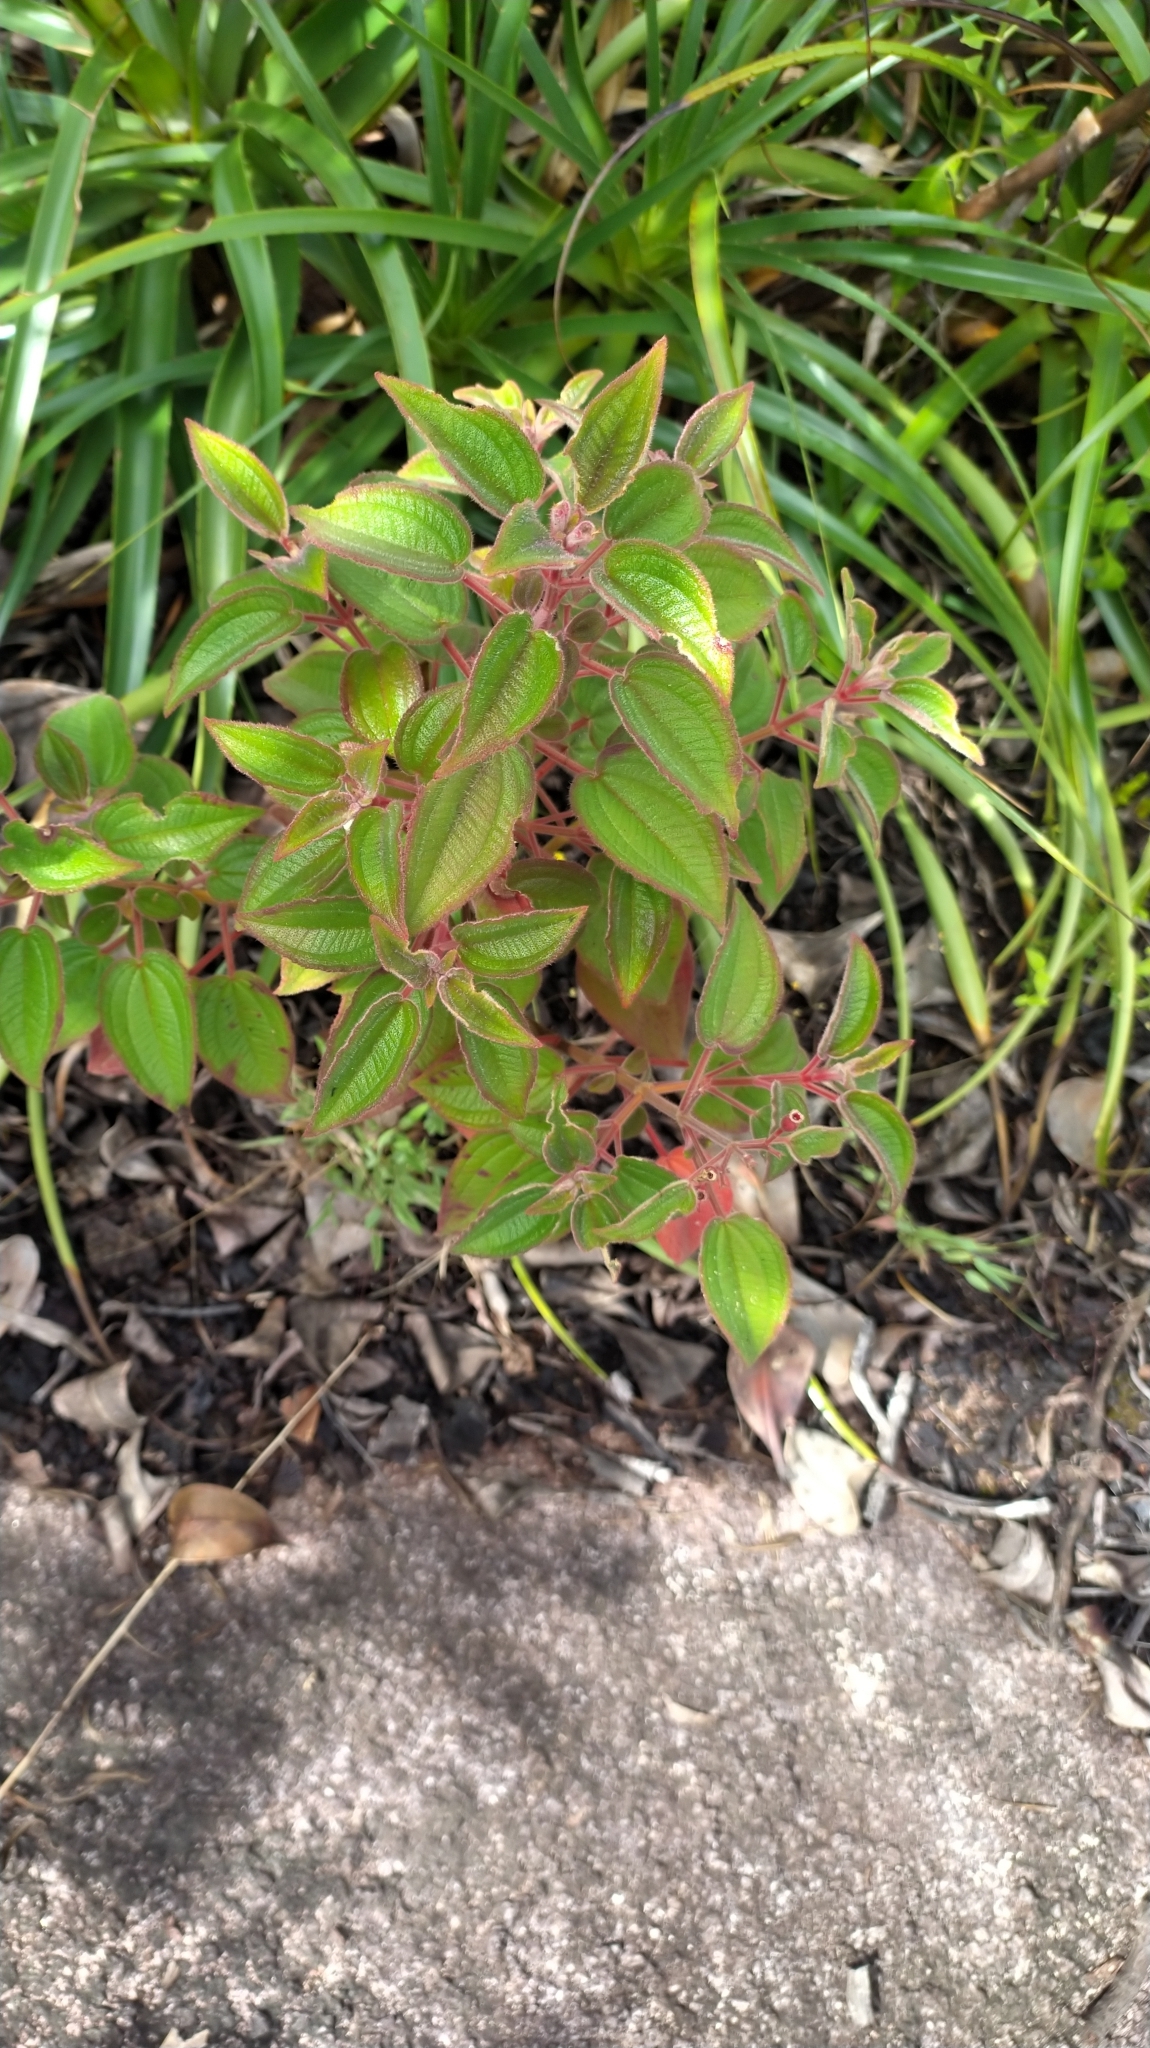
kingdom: Plantae
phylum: Tracheophyta
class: Magnoliopsida
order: Myrtales
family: Melastomataceae
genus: Ernestia
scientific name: Ernestia granvillei
